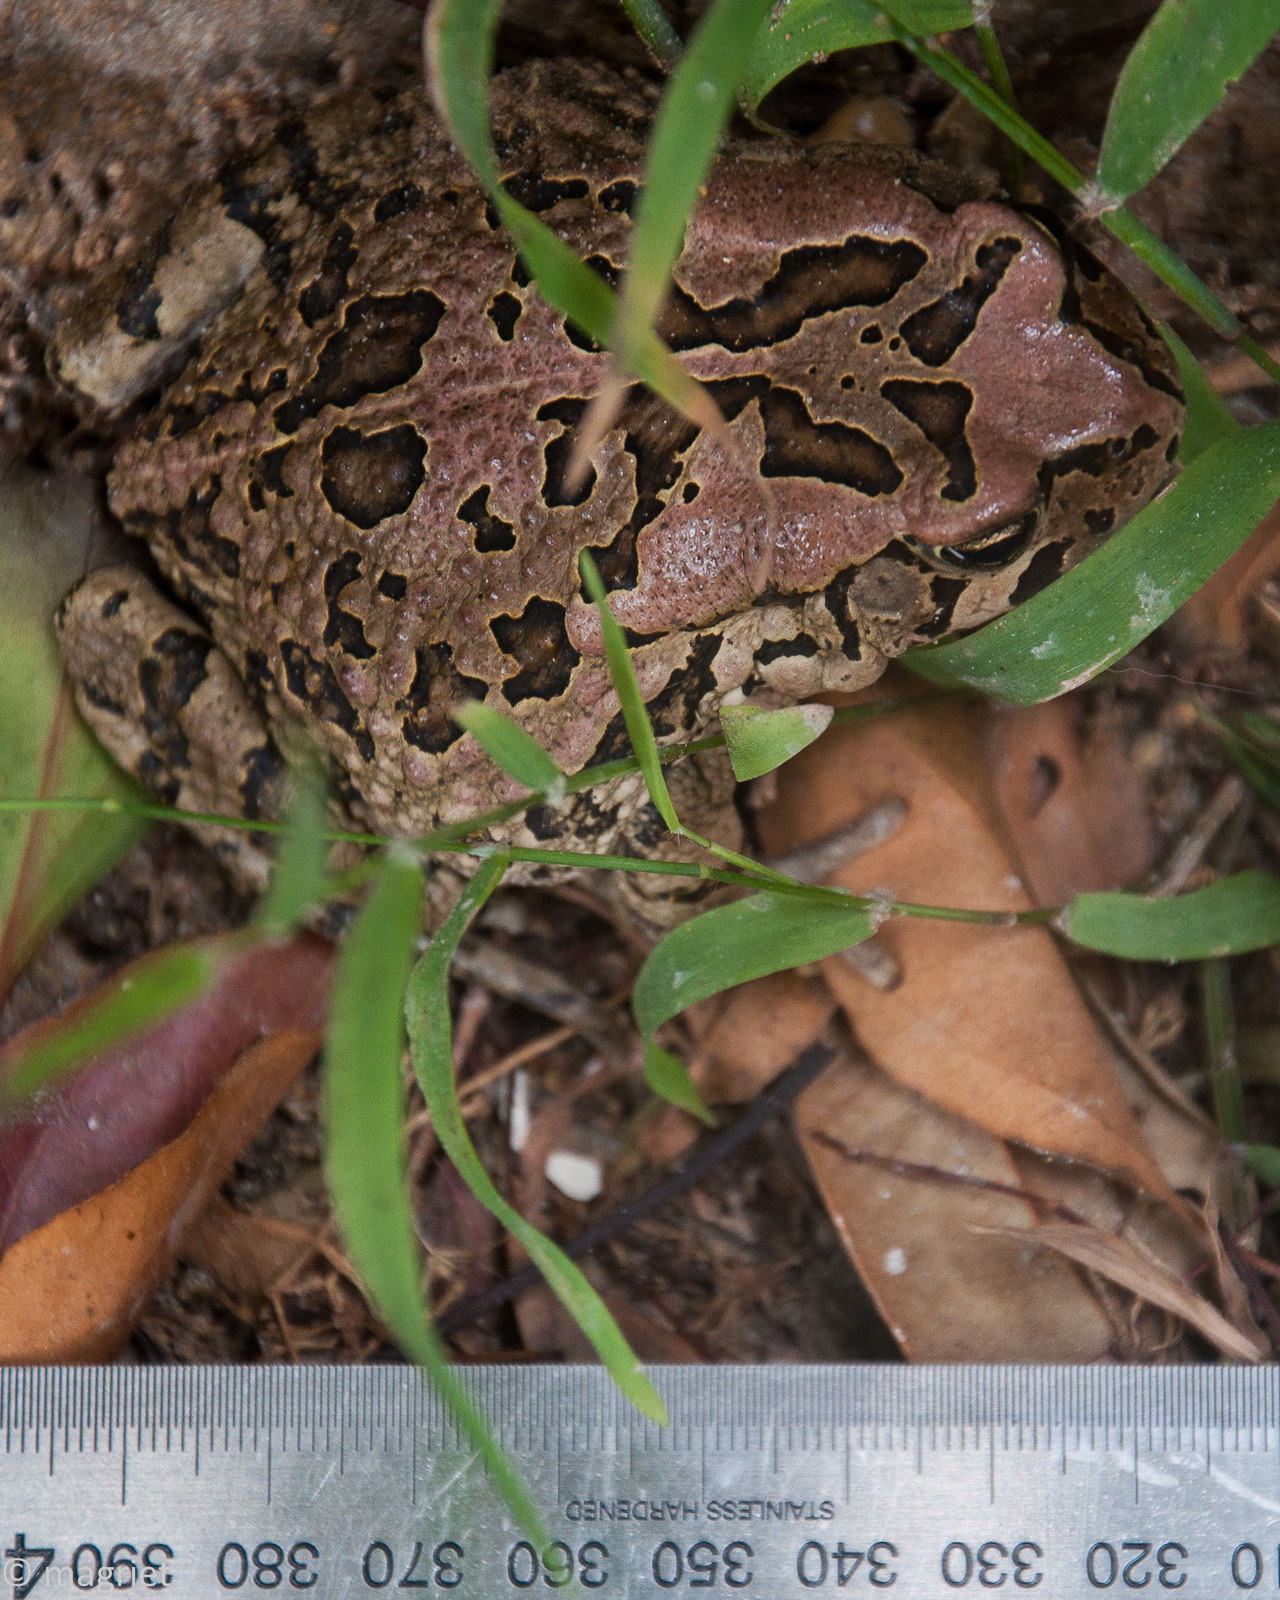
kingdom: Animalia
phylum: Chordata
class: Amphibia
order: Anura
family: Bufonidae
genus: Sclerophrys
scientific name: Sclerophrys capensis
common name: Ranger’s toad
